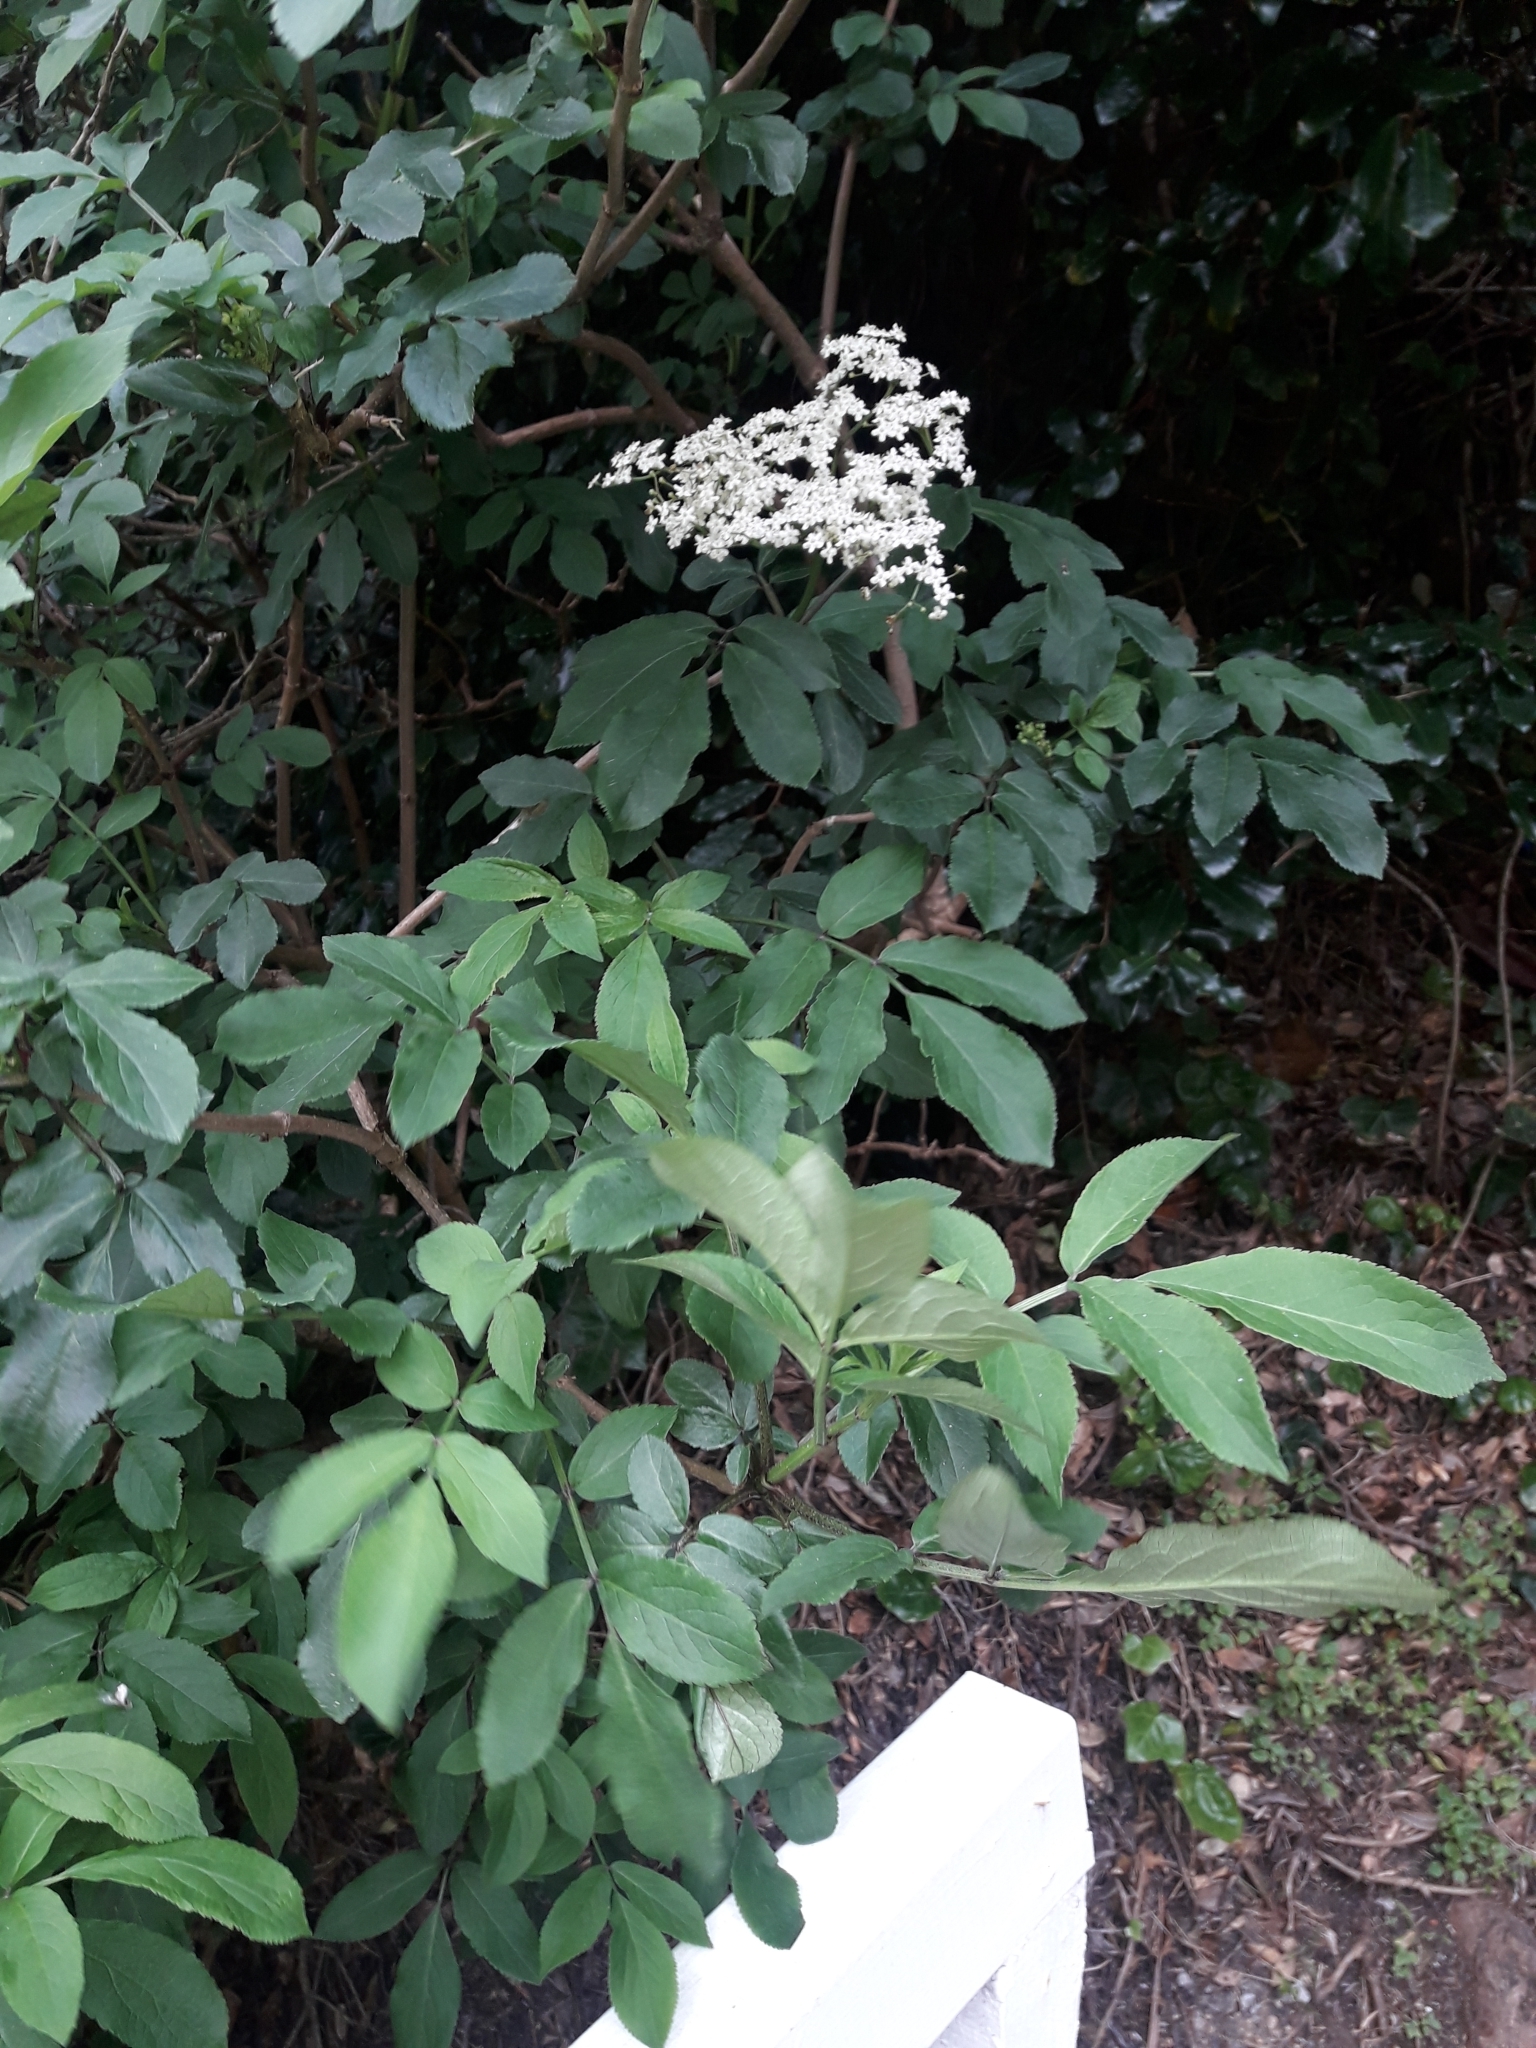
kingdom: Plantae
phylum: Tracheophyta
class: Magnoliopsida
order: Dipsacales
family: Viburnaceae
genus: Sambucus
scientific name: Sambucus nigra
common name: Elder
